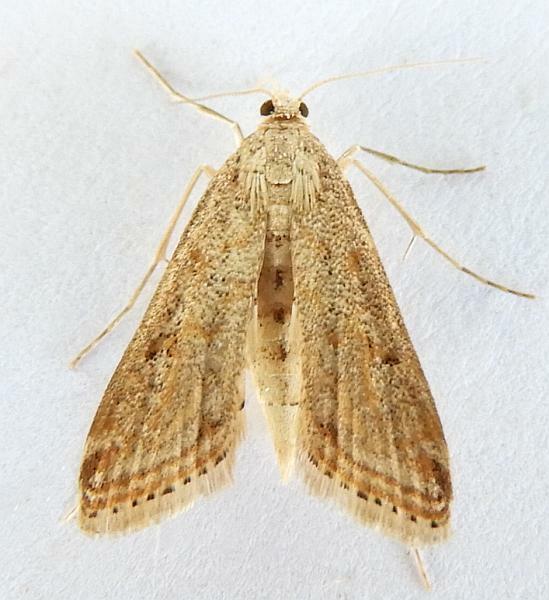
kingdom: Animalia
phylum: Arthropoda
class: Insecta
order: Lepidoptera
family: Crambidae
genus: Parapoynx
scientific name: Parapoynx allionealis
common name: Bladderwort casemaker
